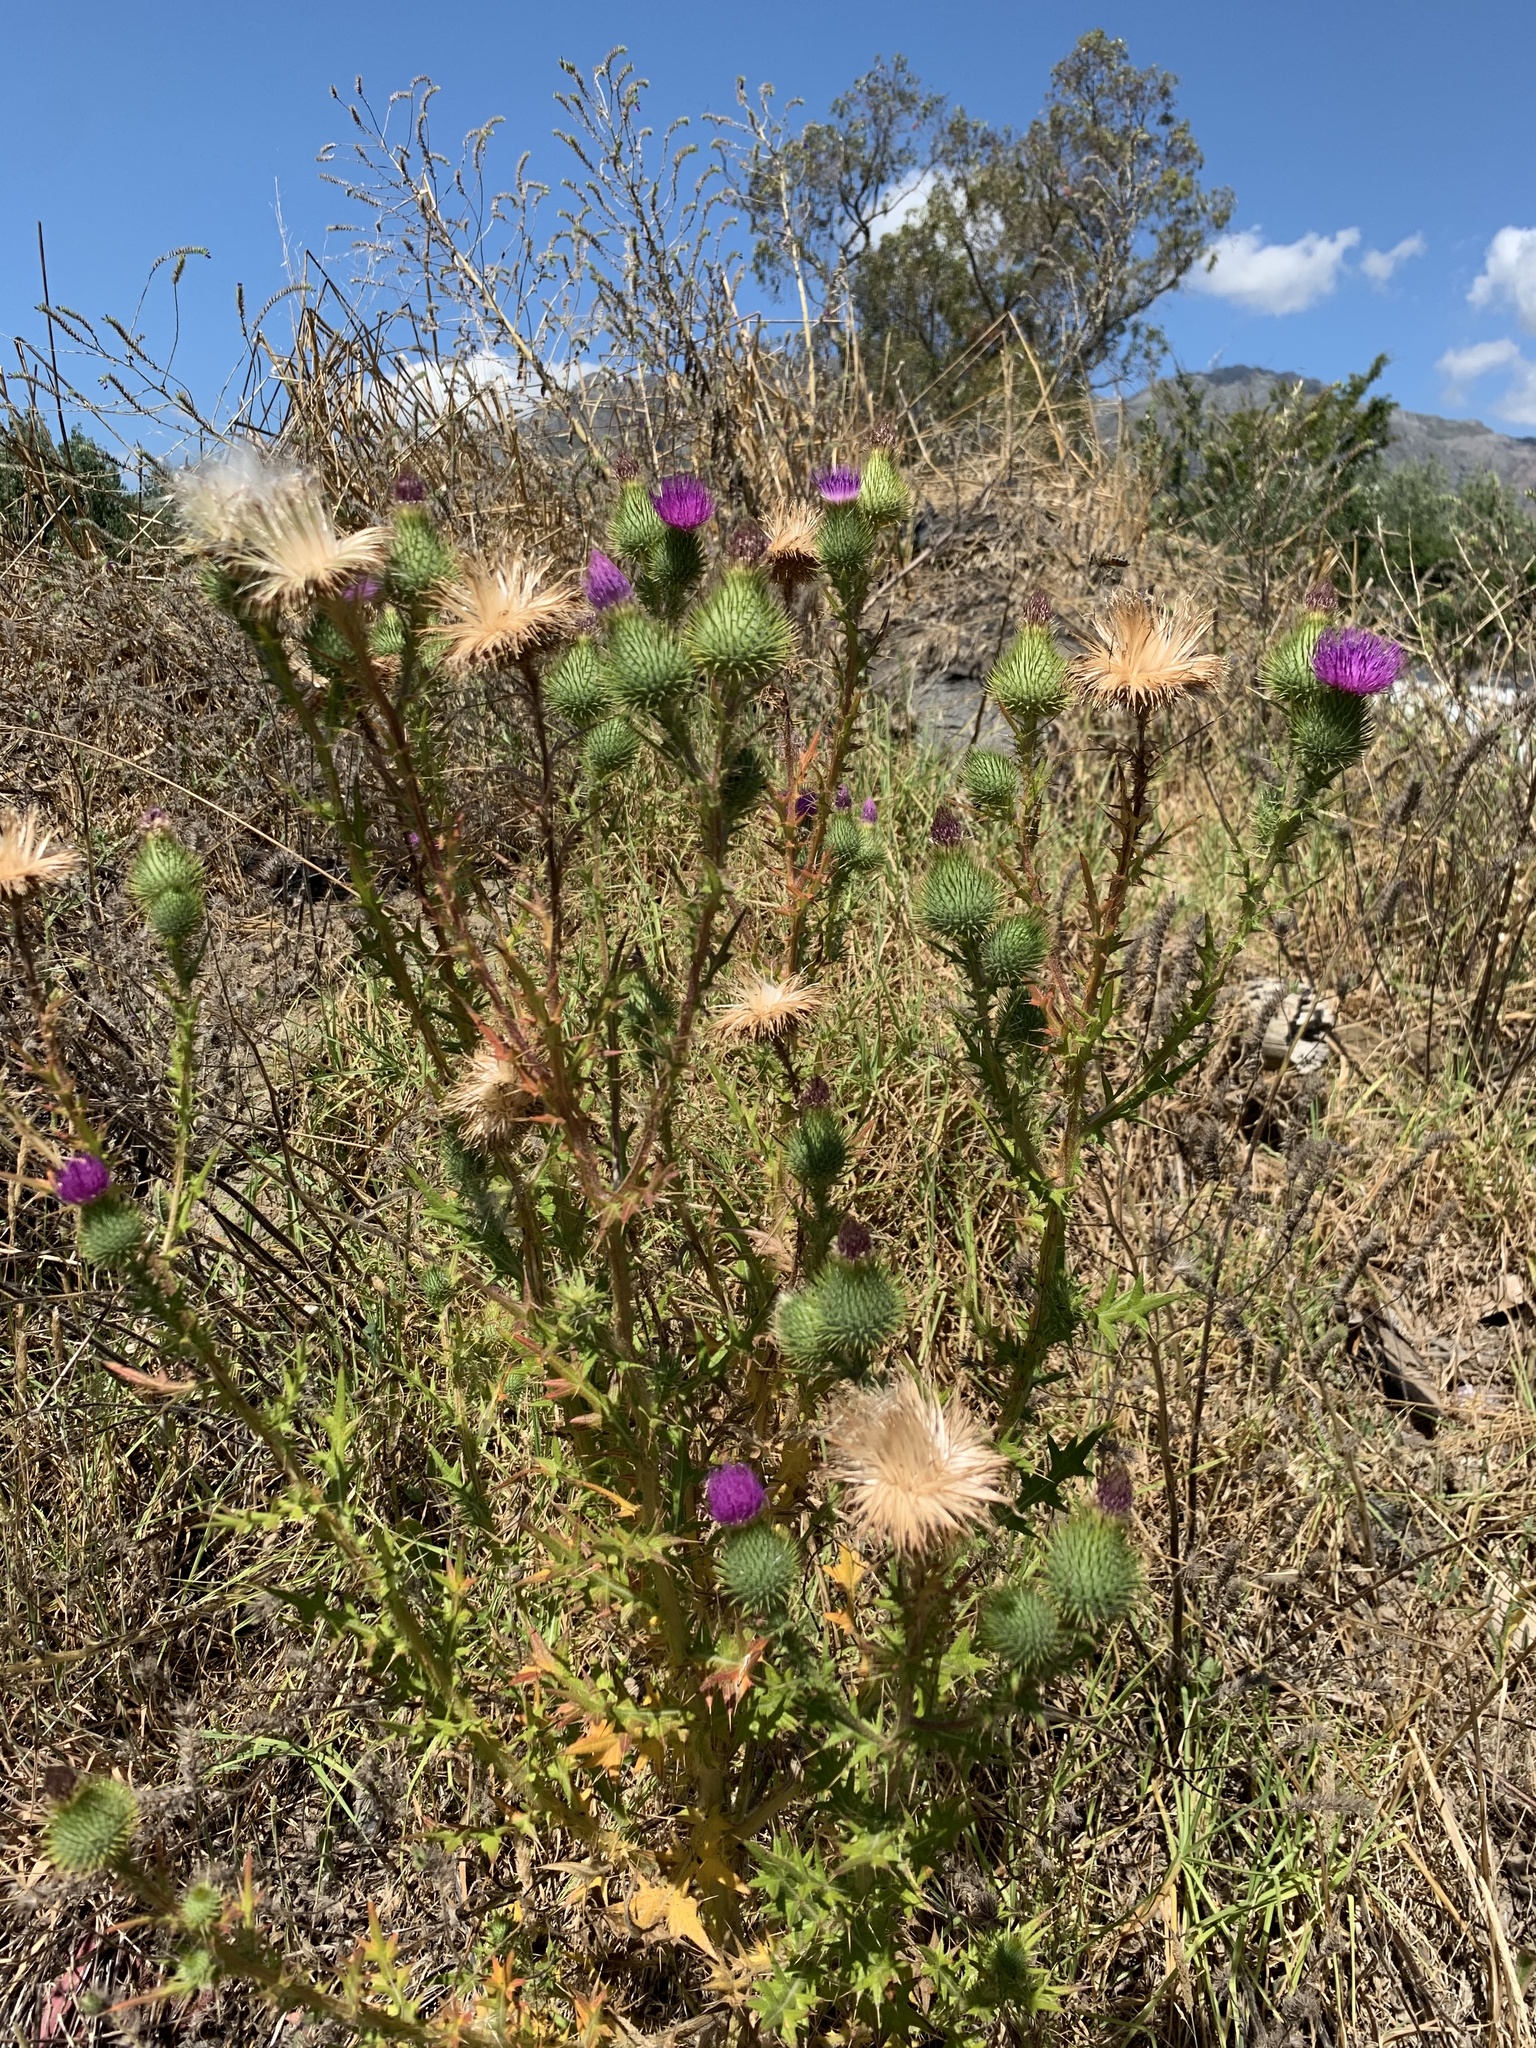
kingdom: Plantae
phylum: Tracheophyta
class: Magnoliopsida
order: Asterales
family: Asteraceae
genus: Cirsium
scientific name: Cirsium vulgare
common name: Bull thistle
